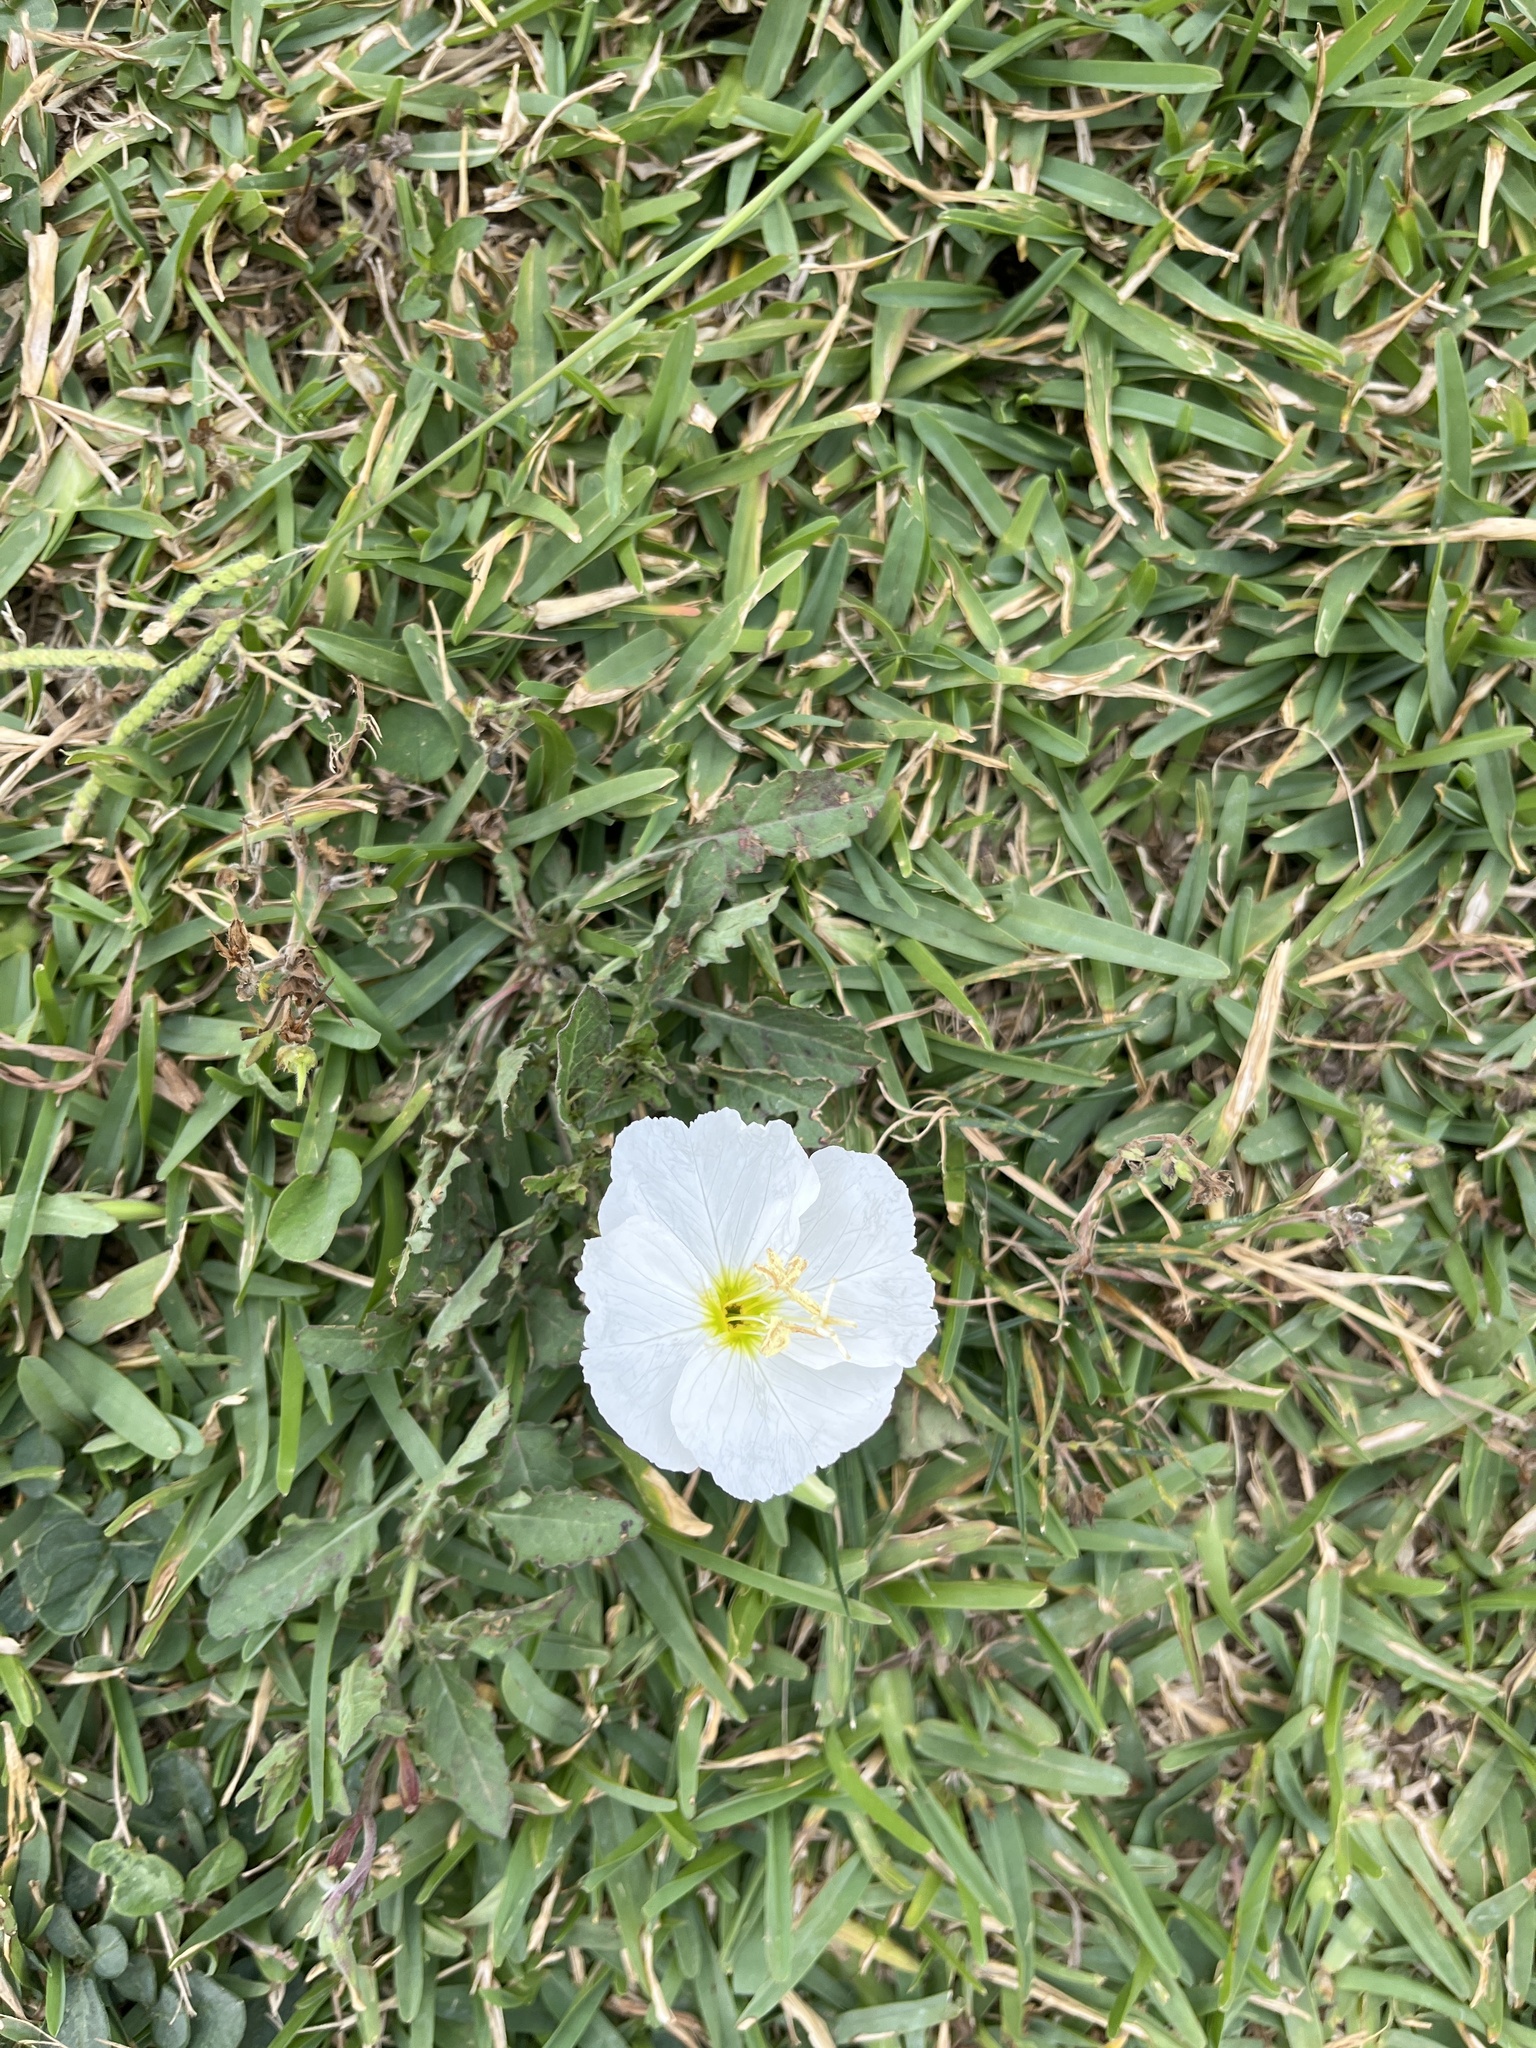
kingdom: Plantae
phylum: Tracheophyta
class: Magnoliopsida
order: Myrtales
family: Onagraceae
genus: Oenothera
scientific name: Oenothera speciosa
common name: White evening-primrose
